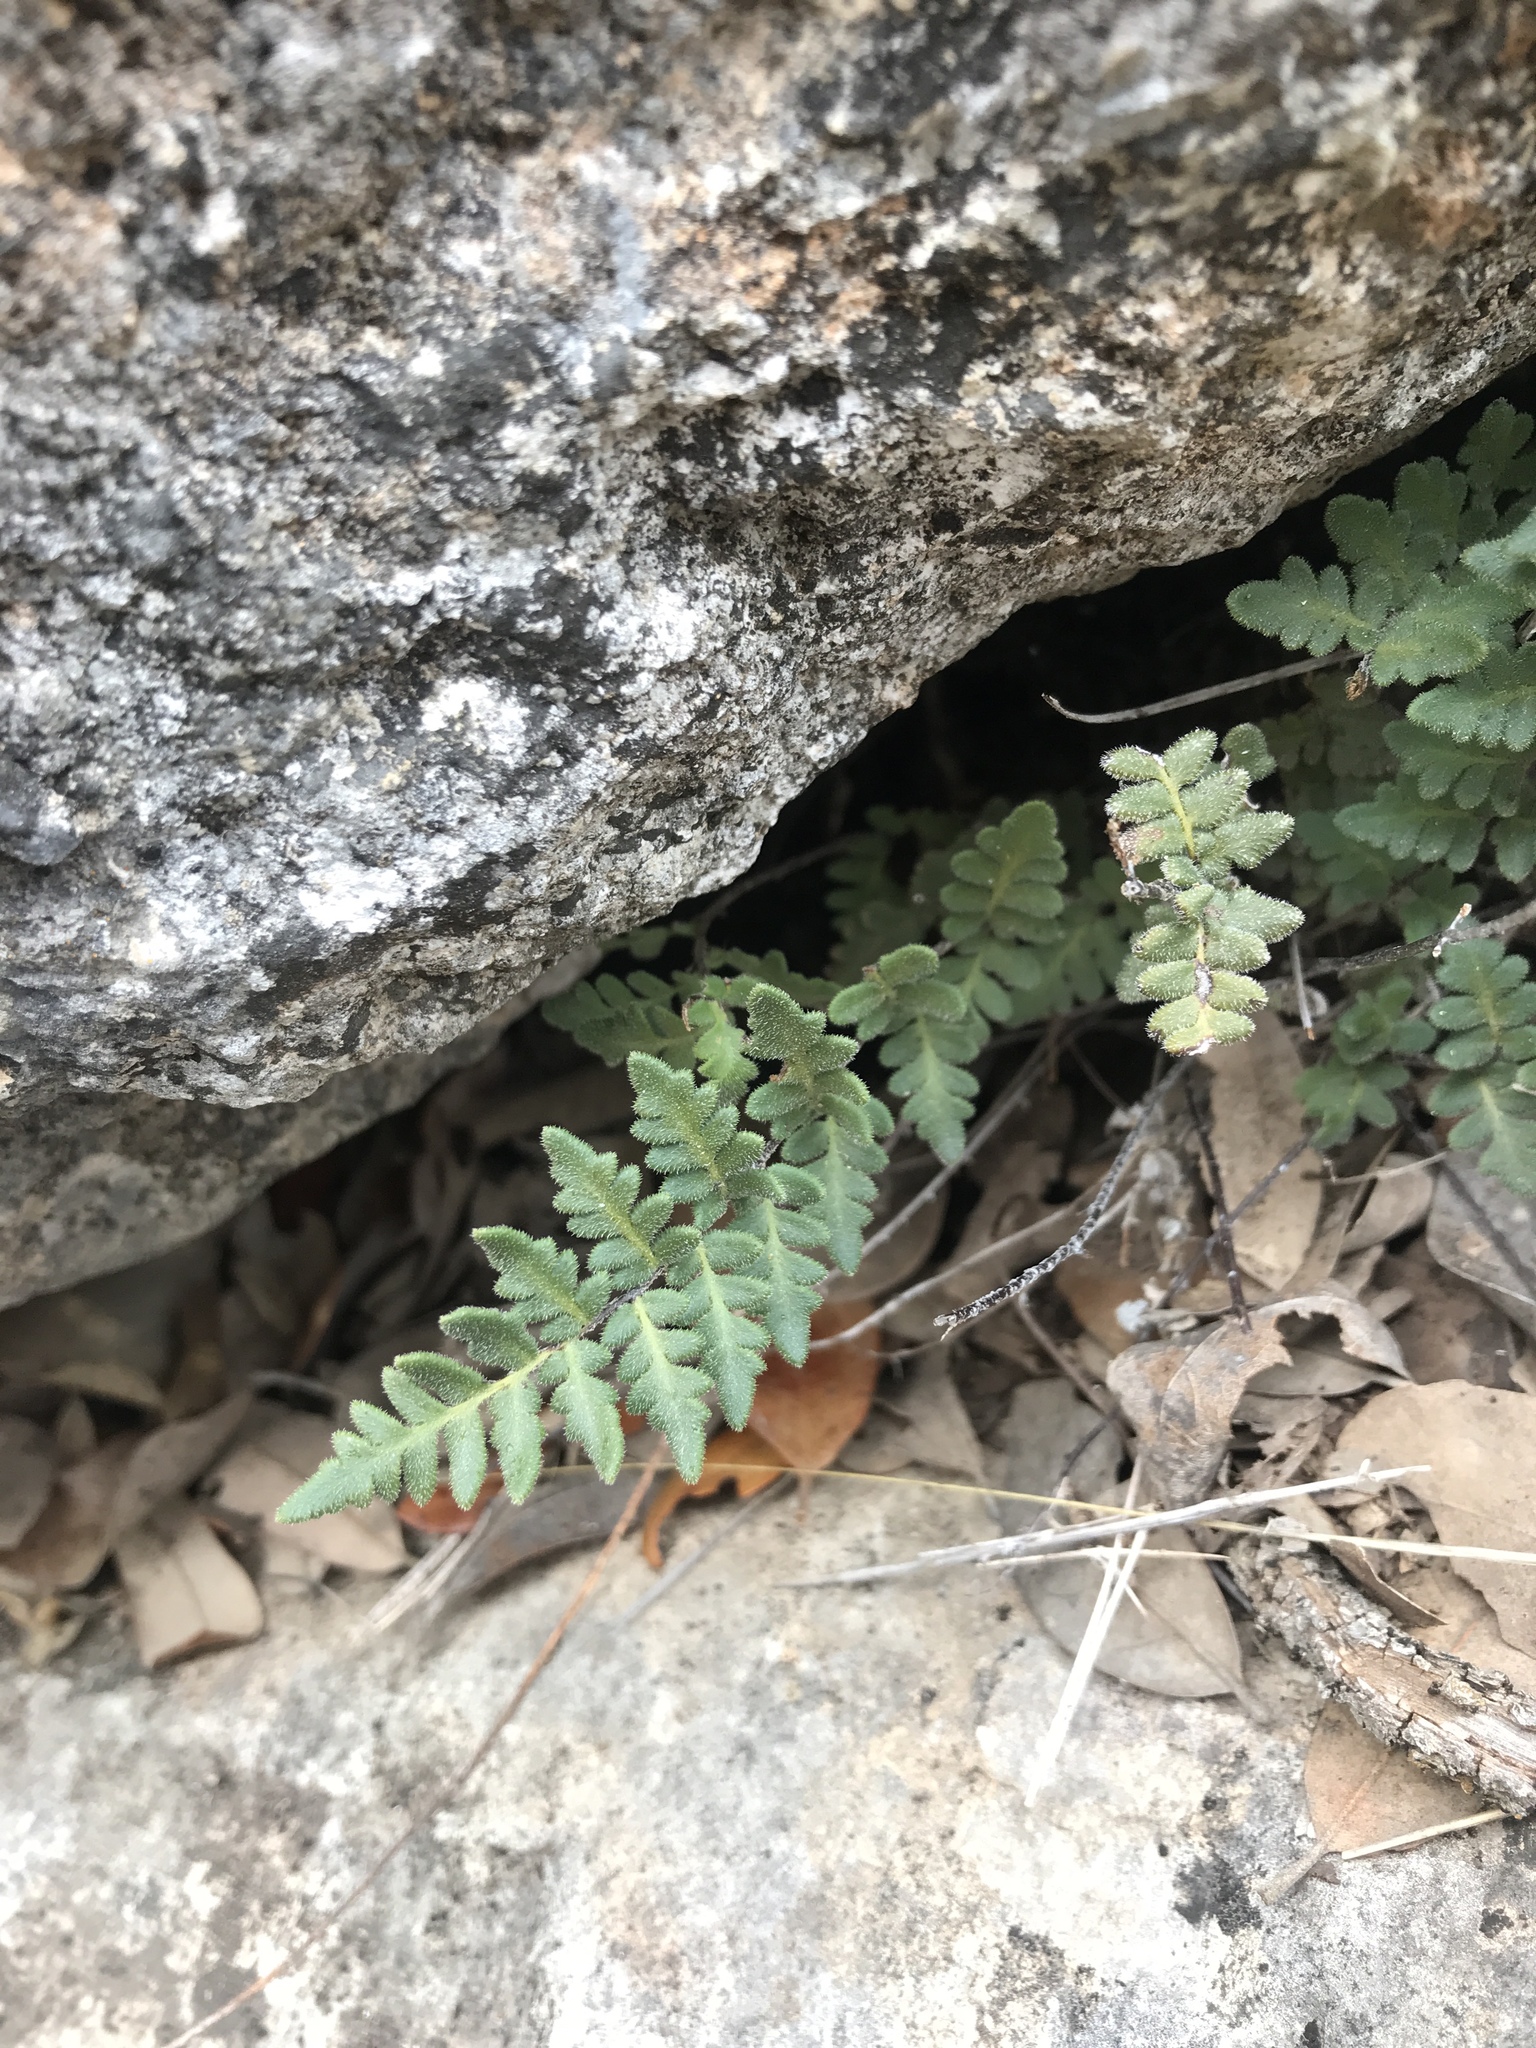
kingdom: Plantae
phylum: Tracheophyta
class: Polypodiopsida
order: Polypodiales
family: Pteridaceae
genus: Myriopteris
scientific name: Myriopteris scabra
